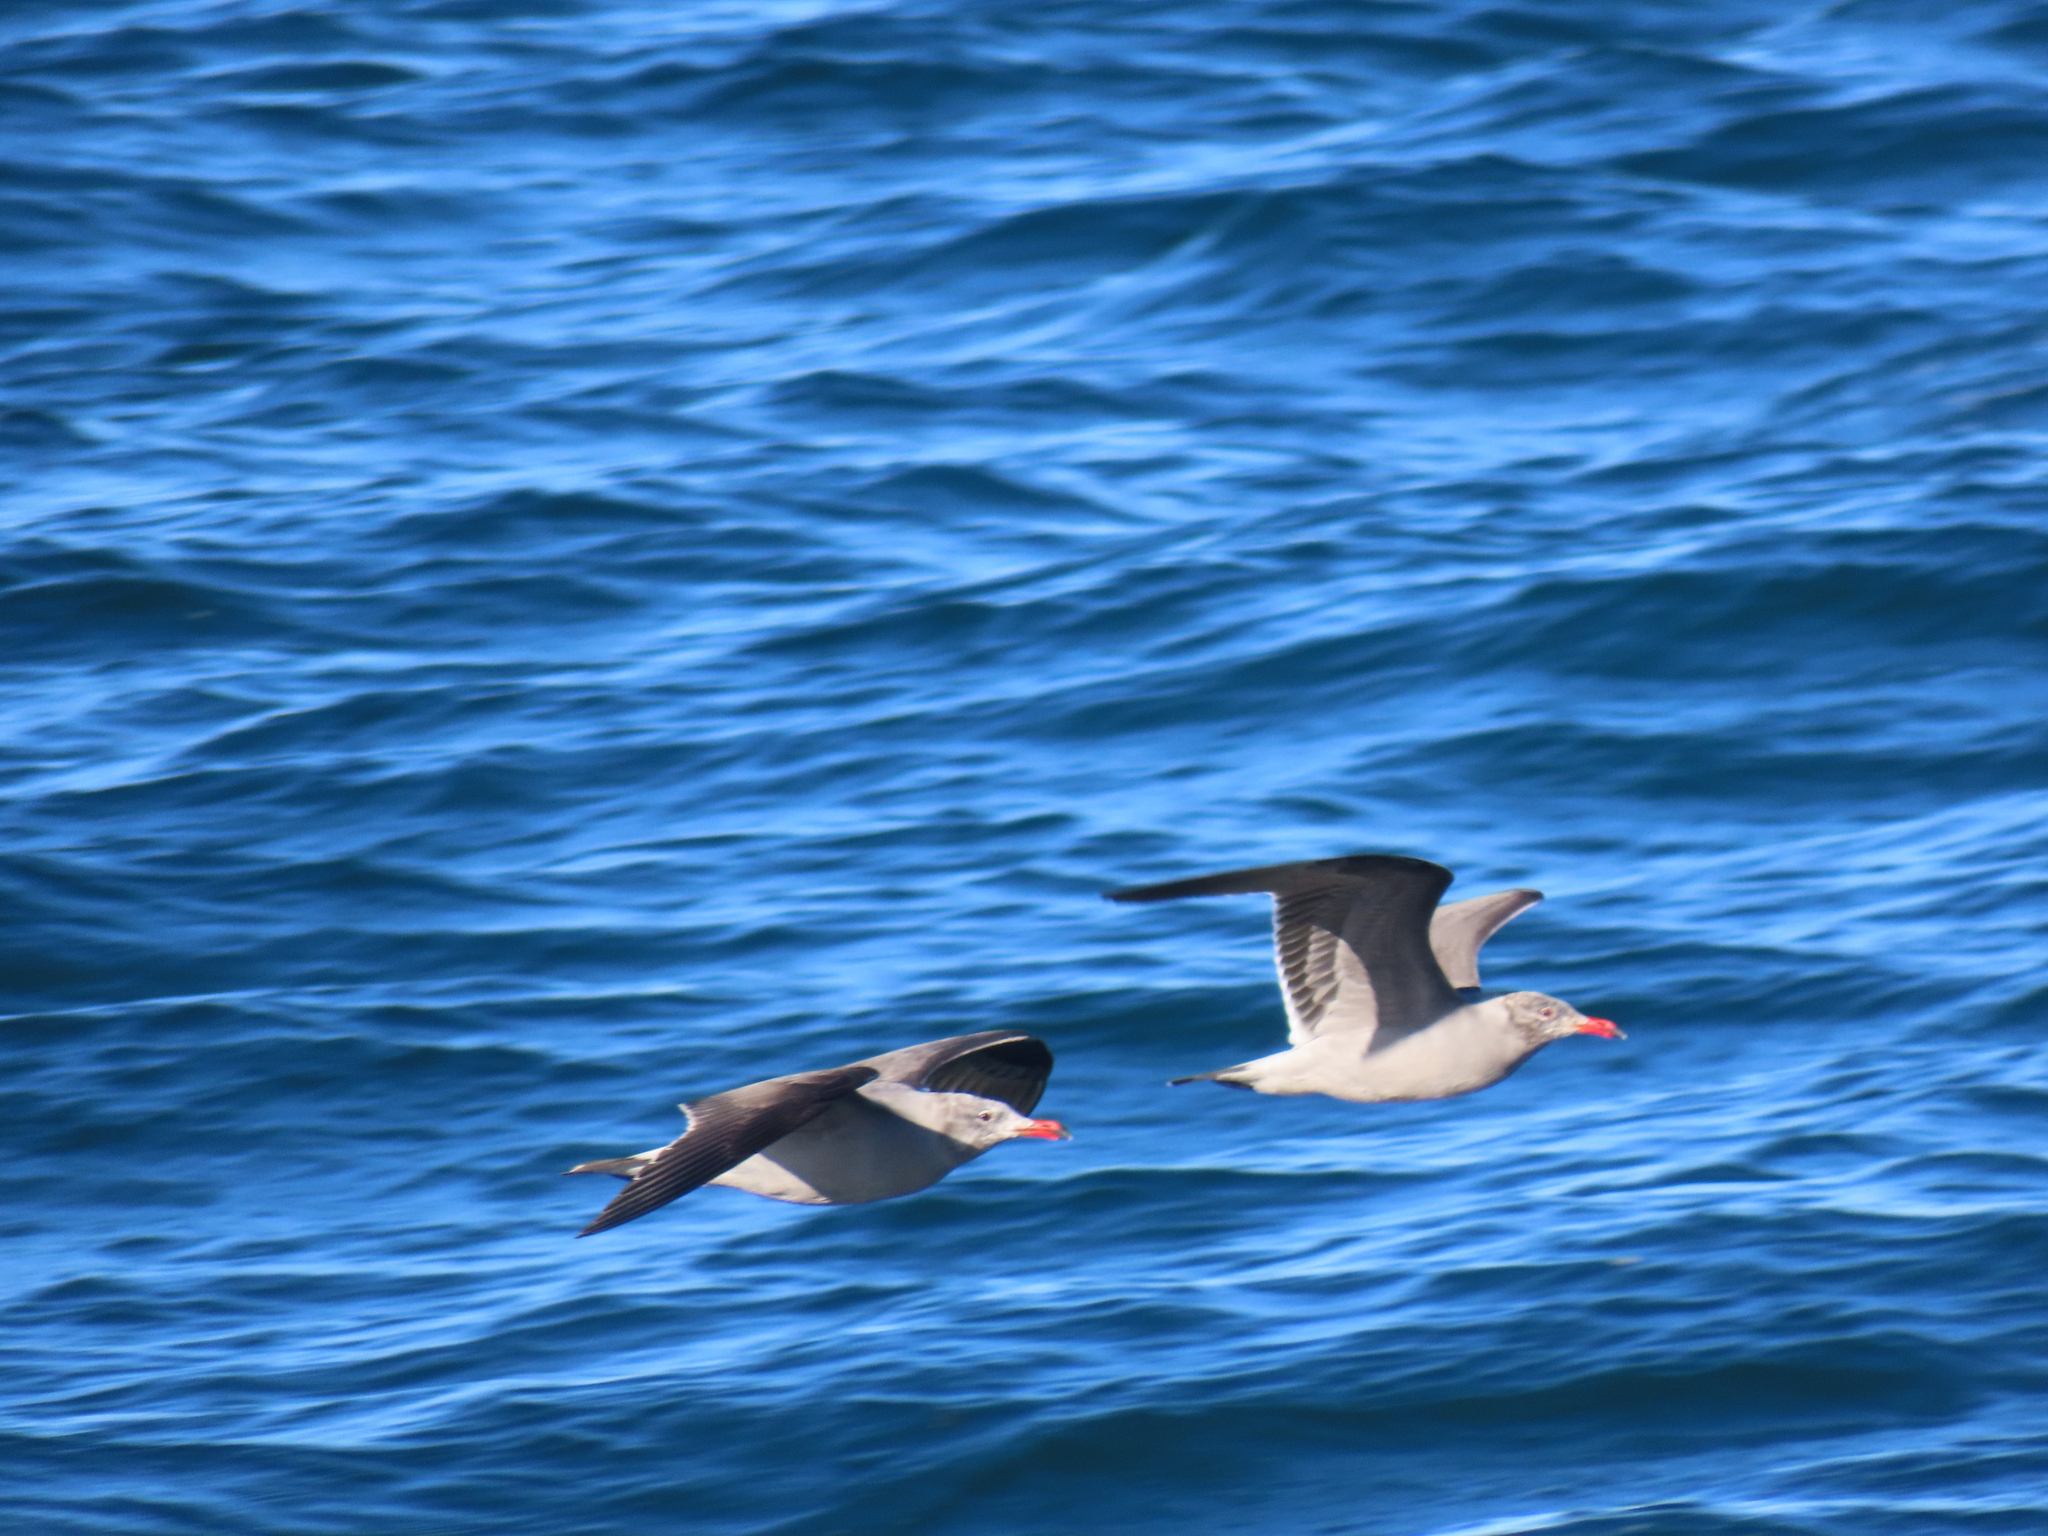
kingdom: Animalia
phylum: Chordata
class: Aves
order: Charadriiformes
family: Laridae
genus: Larus
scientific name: Larus heermanni
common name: Heermann's gull
